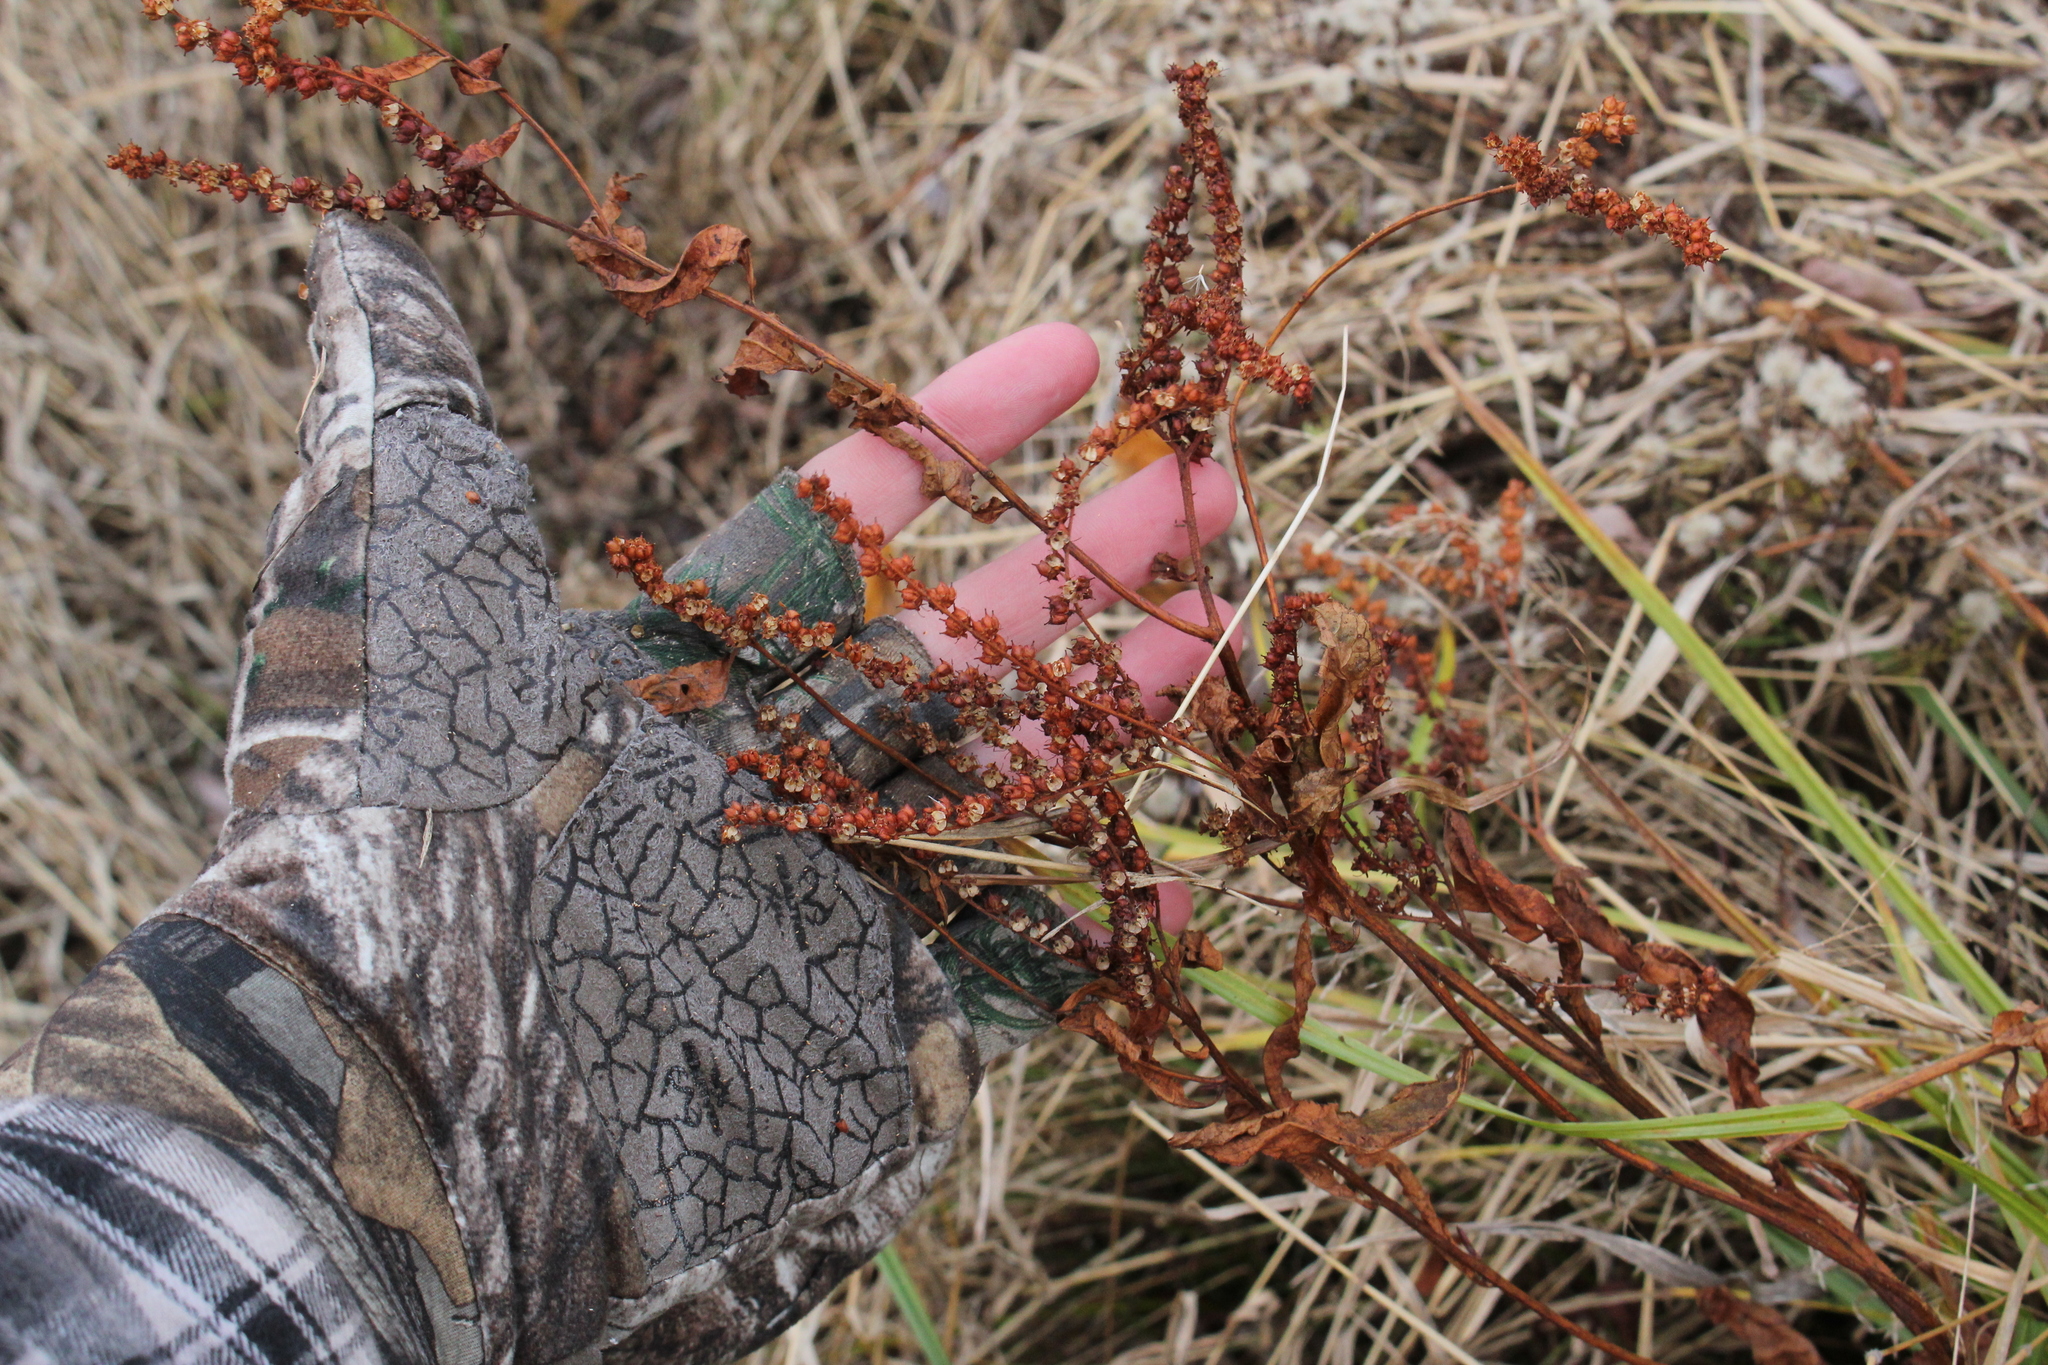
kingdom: Plantae
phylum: Tracheophyta
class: Magnoliopsida
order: Saxifragales
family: Penthoraceae
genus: Penthorum
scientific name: Penthorum sedoides
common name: Ditch stonecrop
